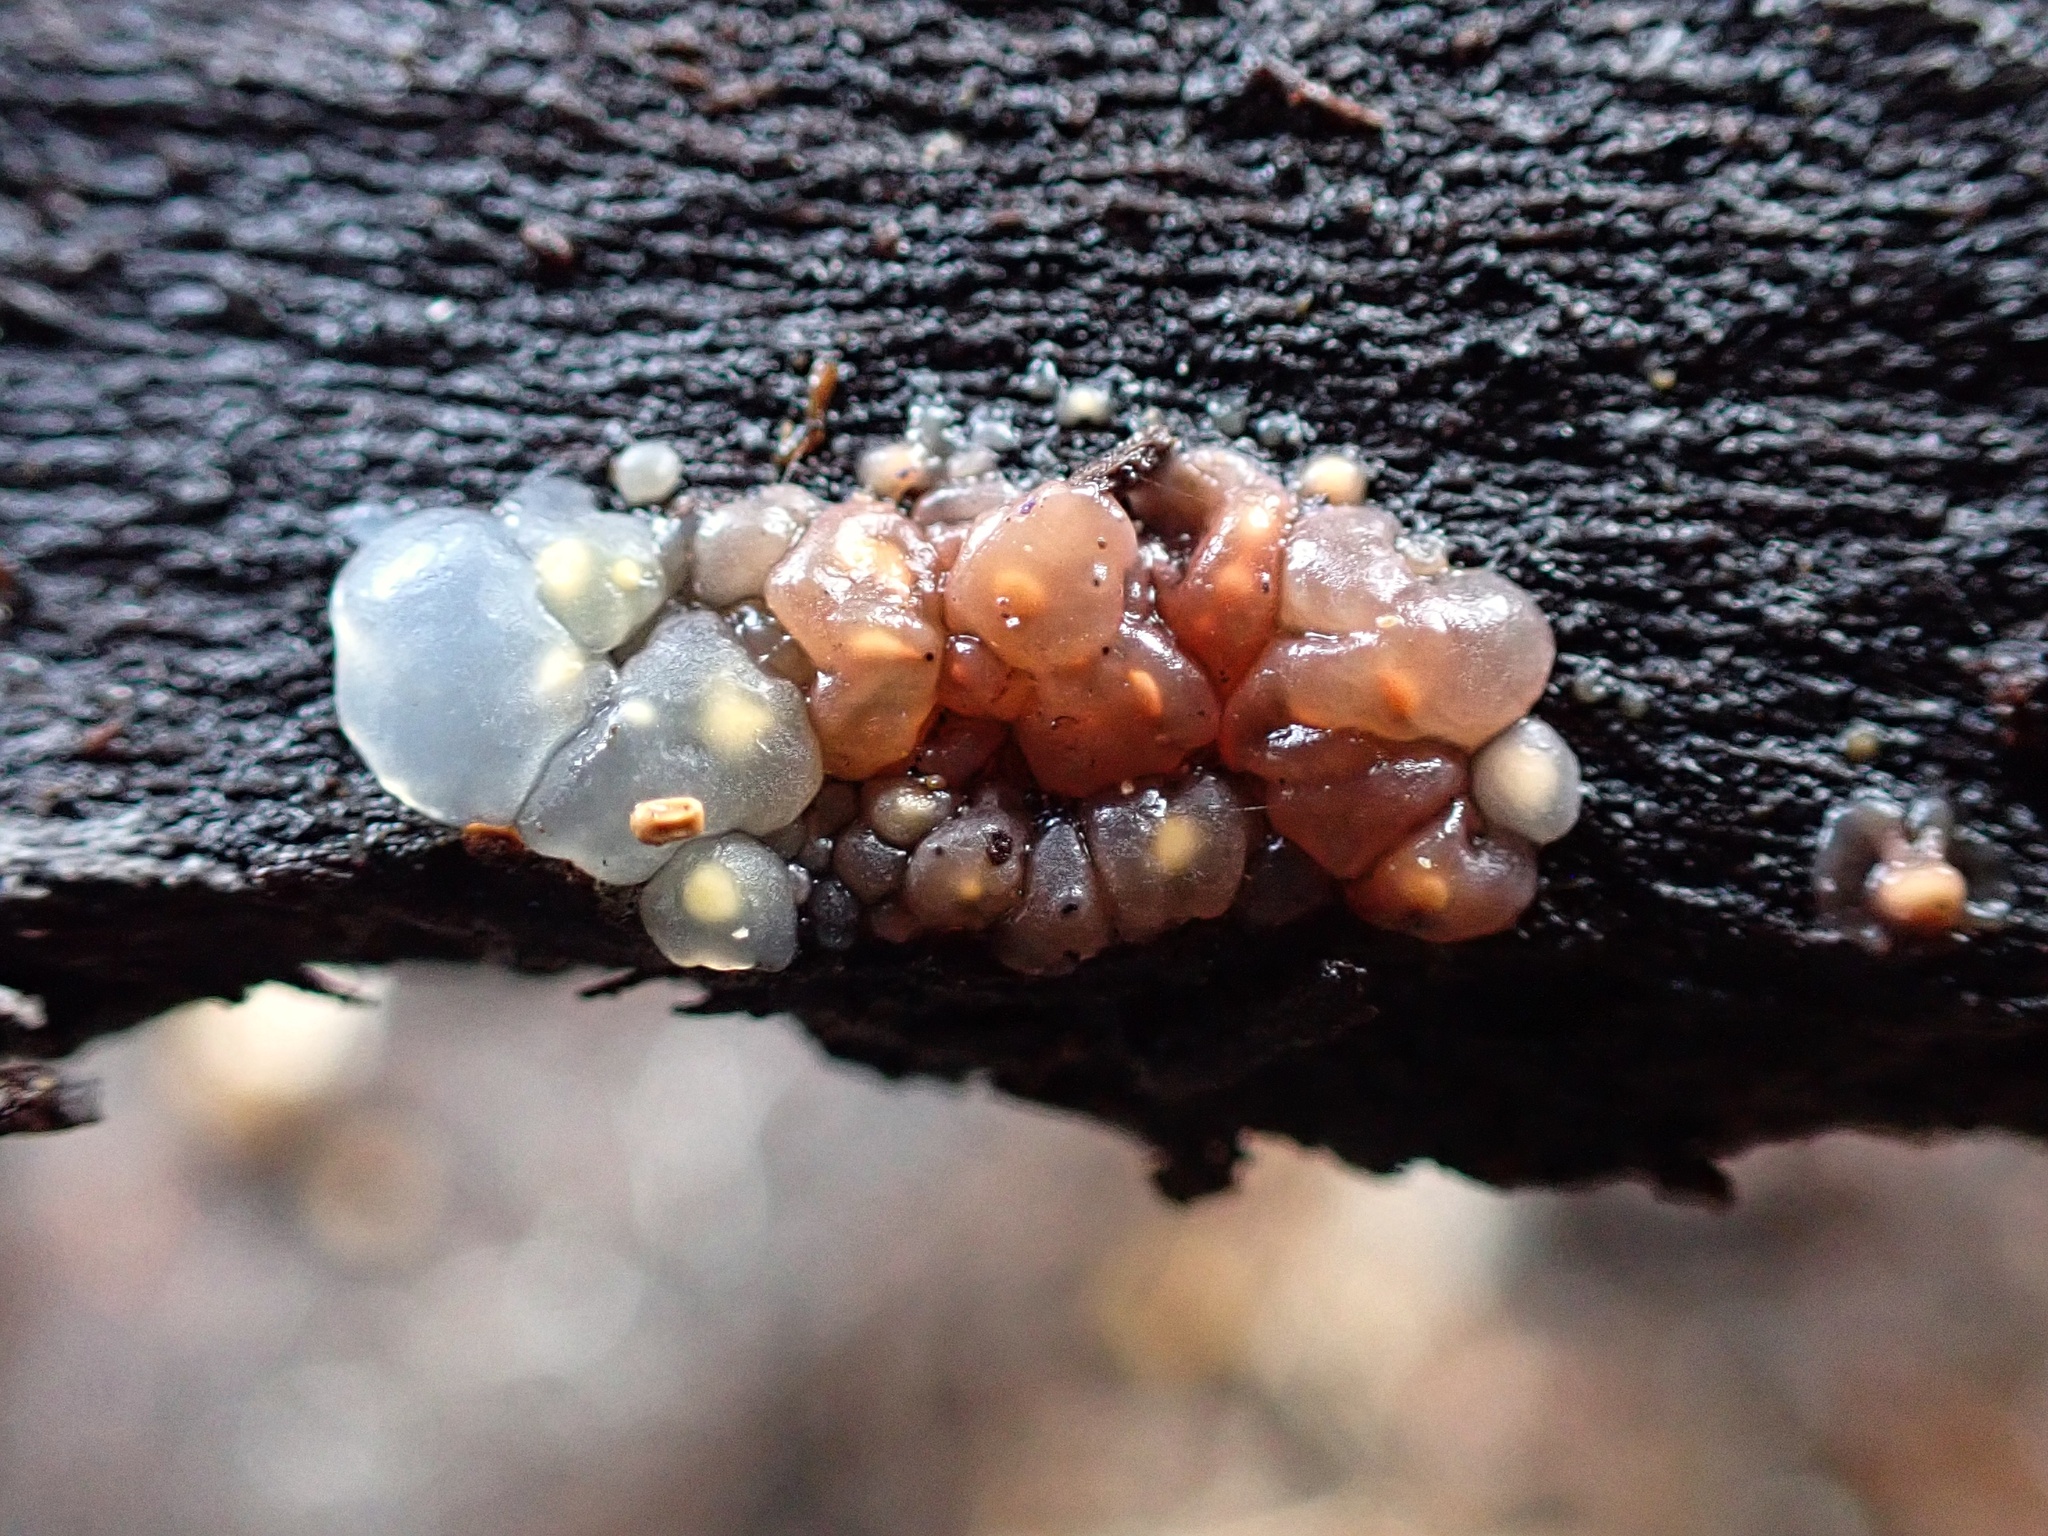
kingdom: Fungi
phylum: Basidiomycota
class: Agaricomycetes
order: Auriculariales
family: Hyaloriaceae
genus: Myxarium
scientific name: Myxarium nucleatum
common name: Crystal brain fungus
